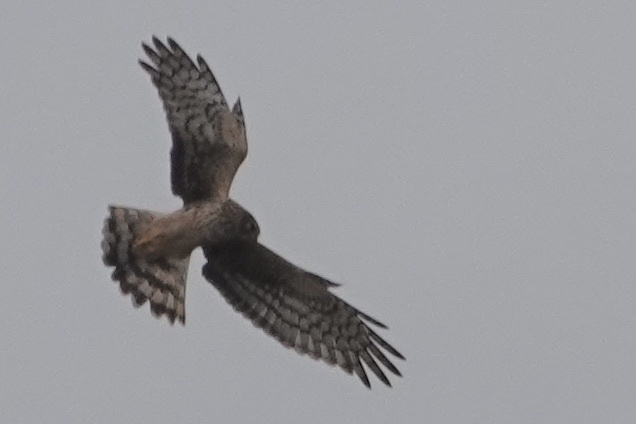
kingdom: Animalia
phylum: Chordata
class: Aves
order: Accipitriformes
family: Accipitridae
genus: Circus
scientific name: Circus cyaneus
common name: Hen harrier
